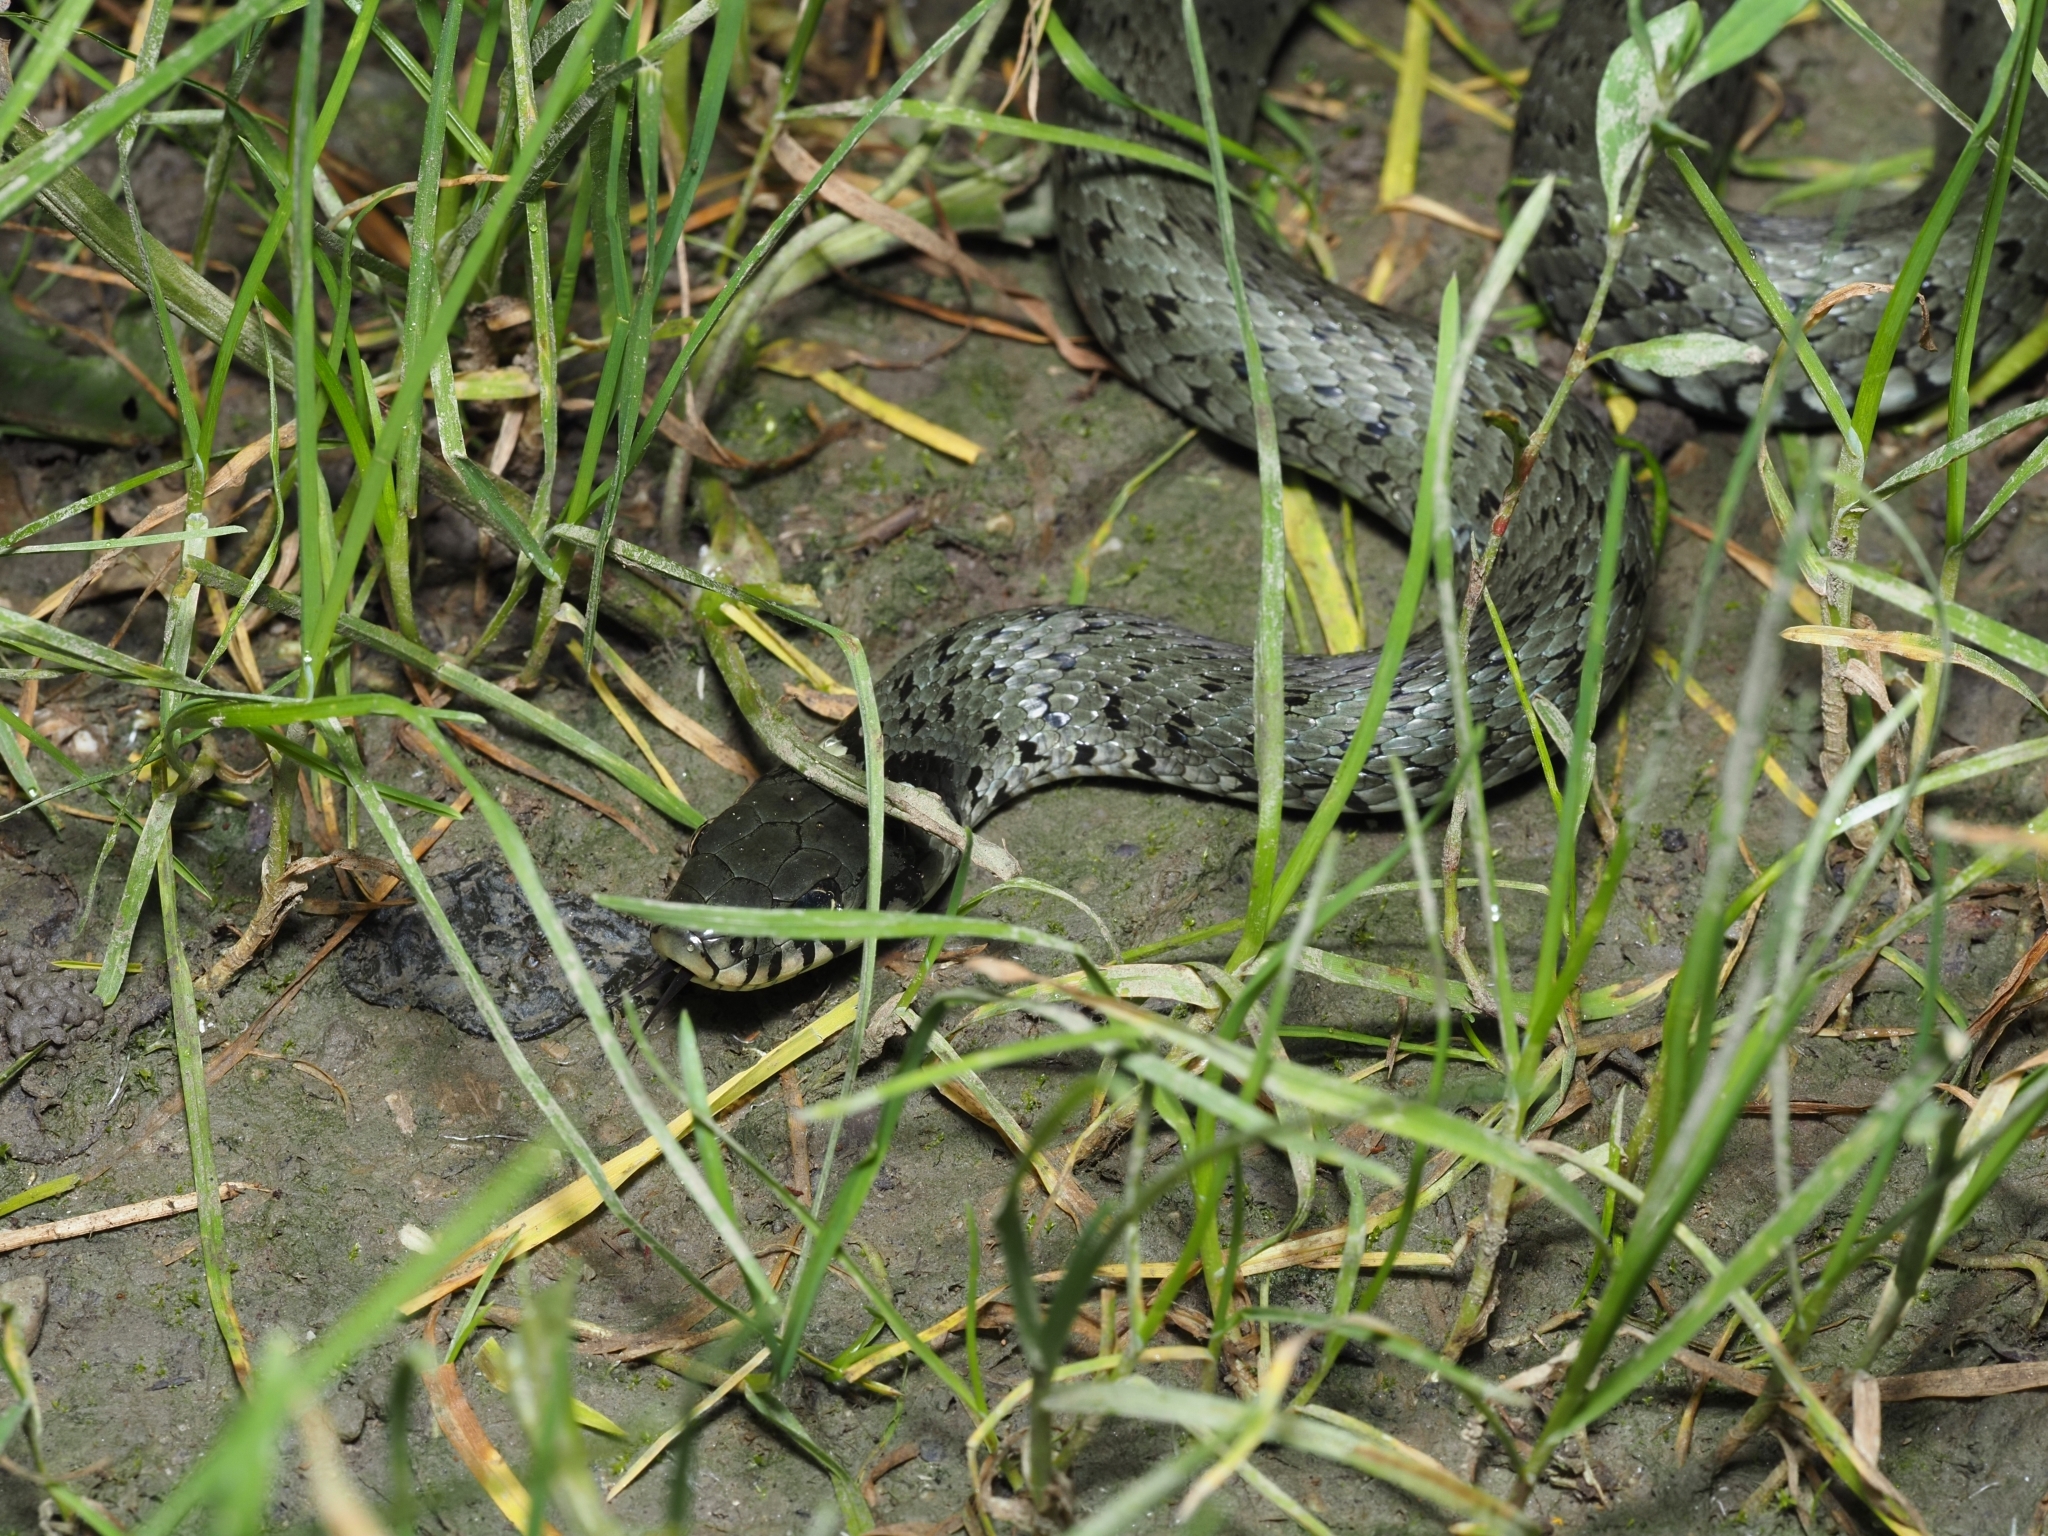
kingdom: Animalia
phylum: Chordata
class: Squamata
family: Colubridae
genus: Natrix
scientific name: Natrix natrix
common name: Grass snake
